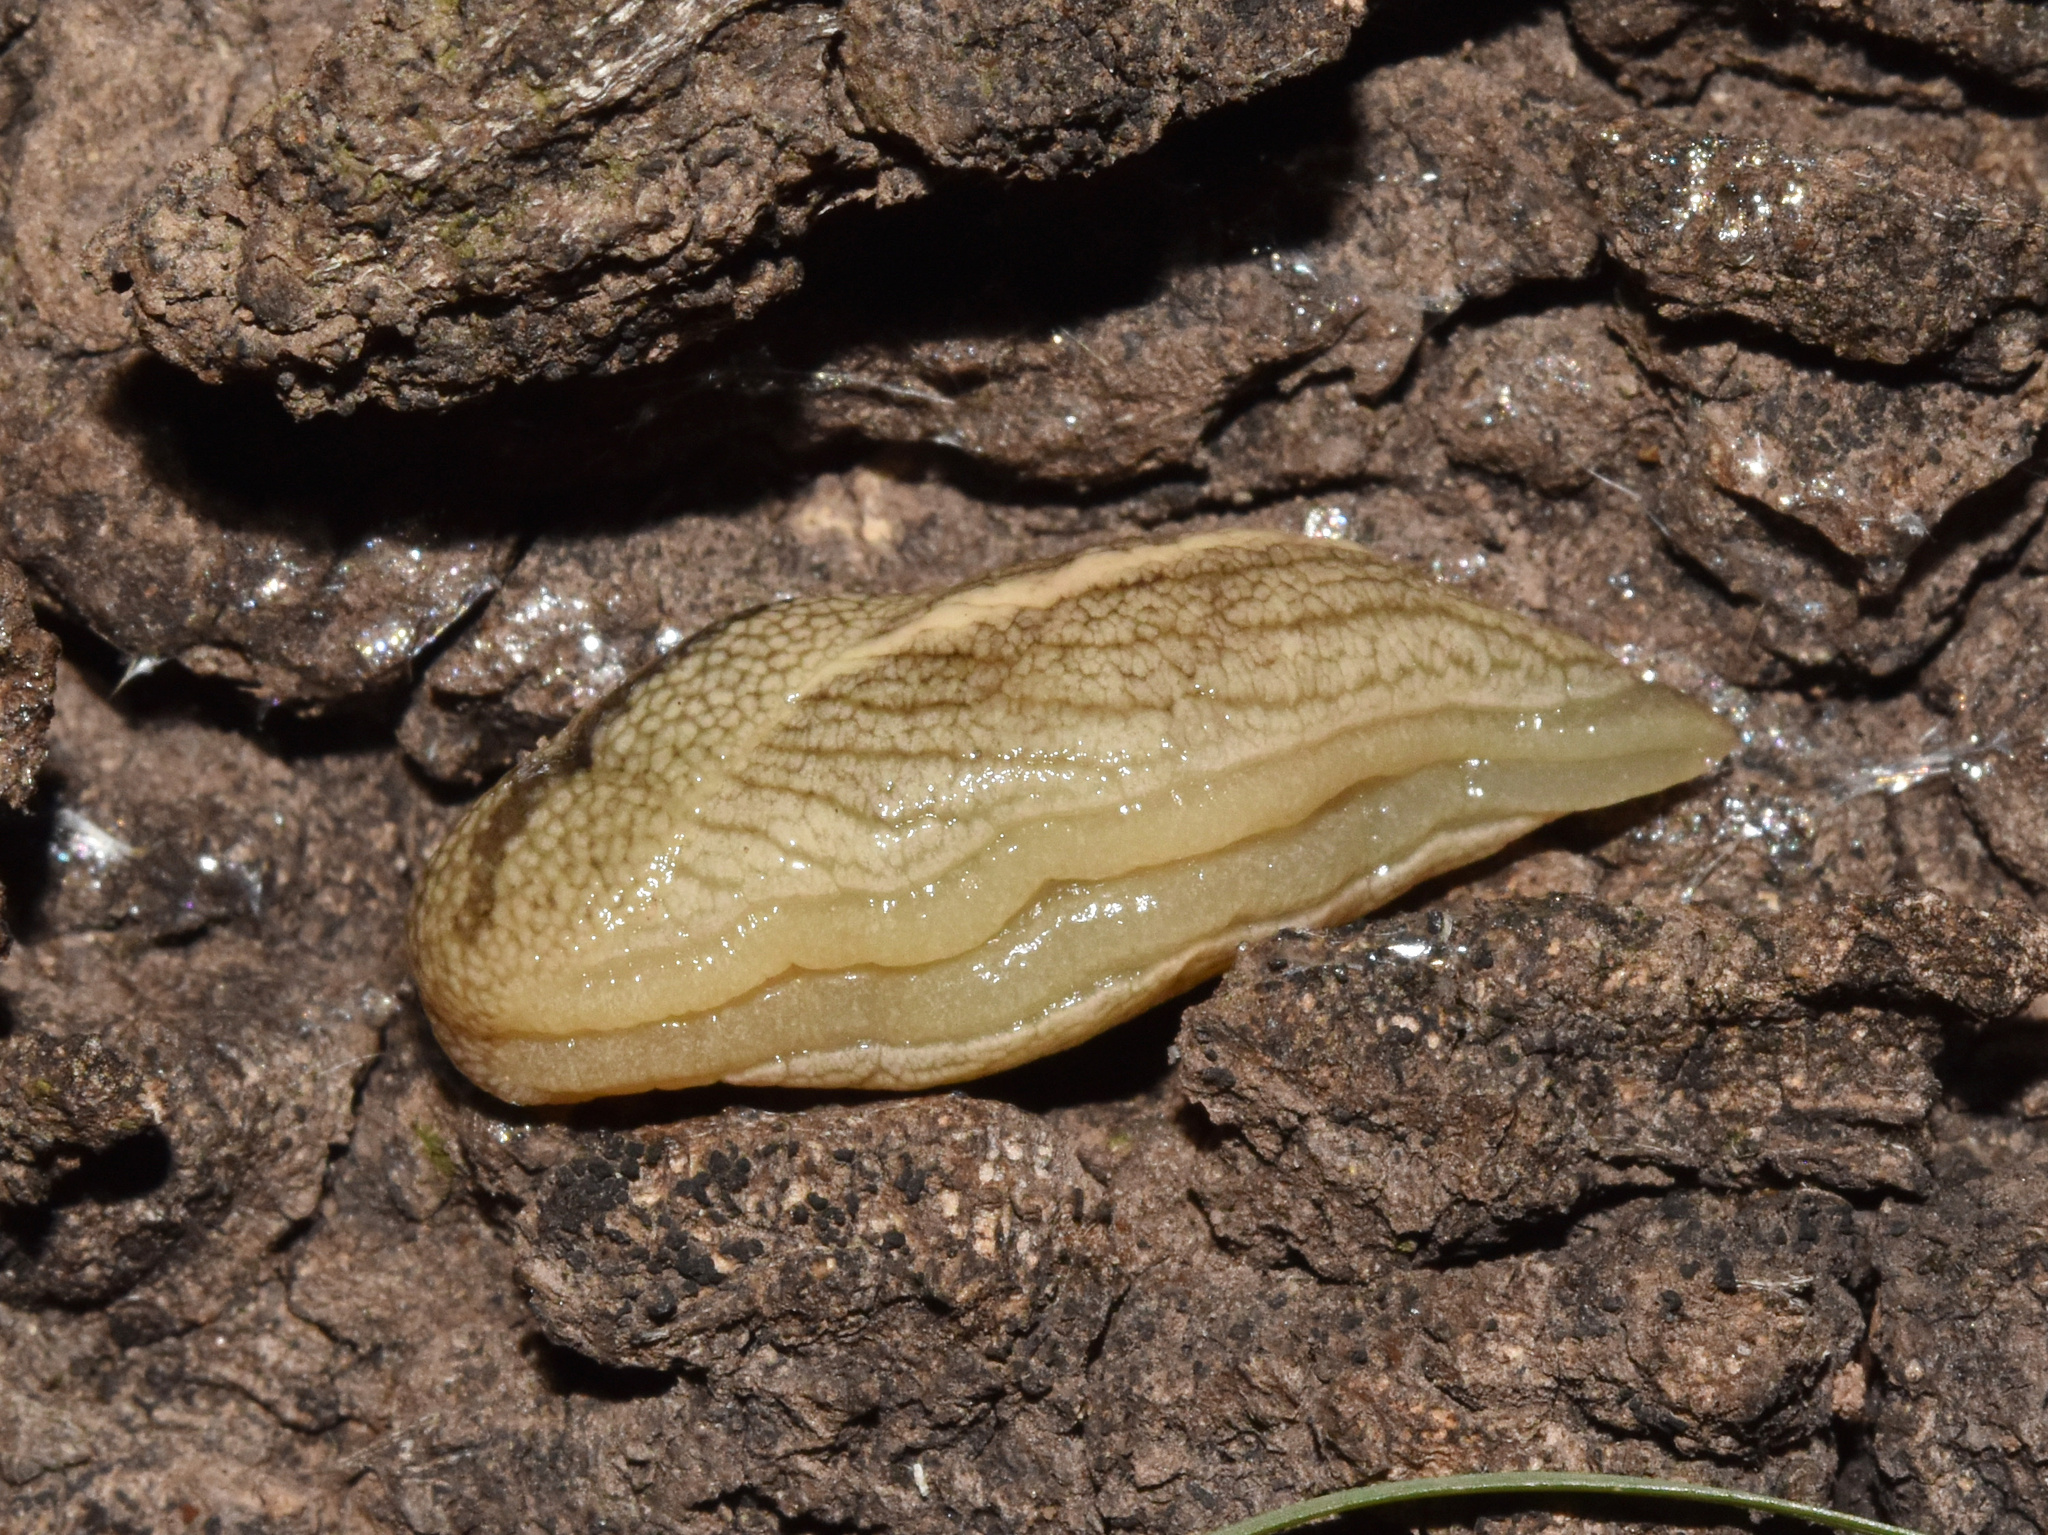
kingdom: Animalia
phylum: Mollusca
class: Gastropoda
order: Stylommatophora
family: Urocyclidae
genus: Elisolimax
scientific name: Elisolimax flavescens
